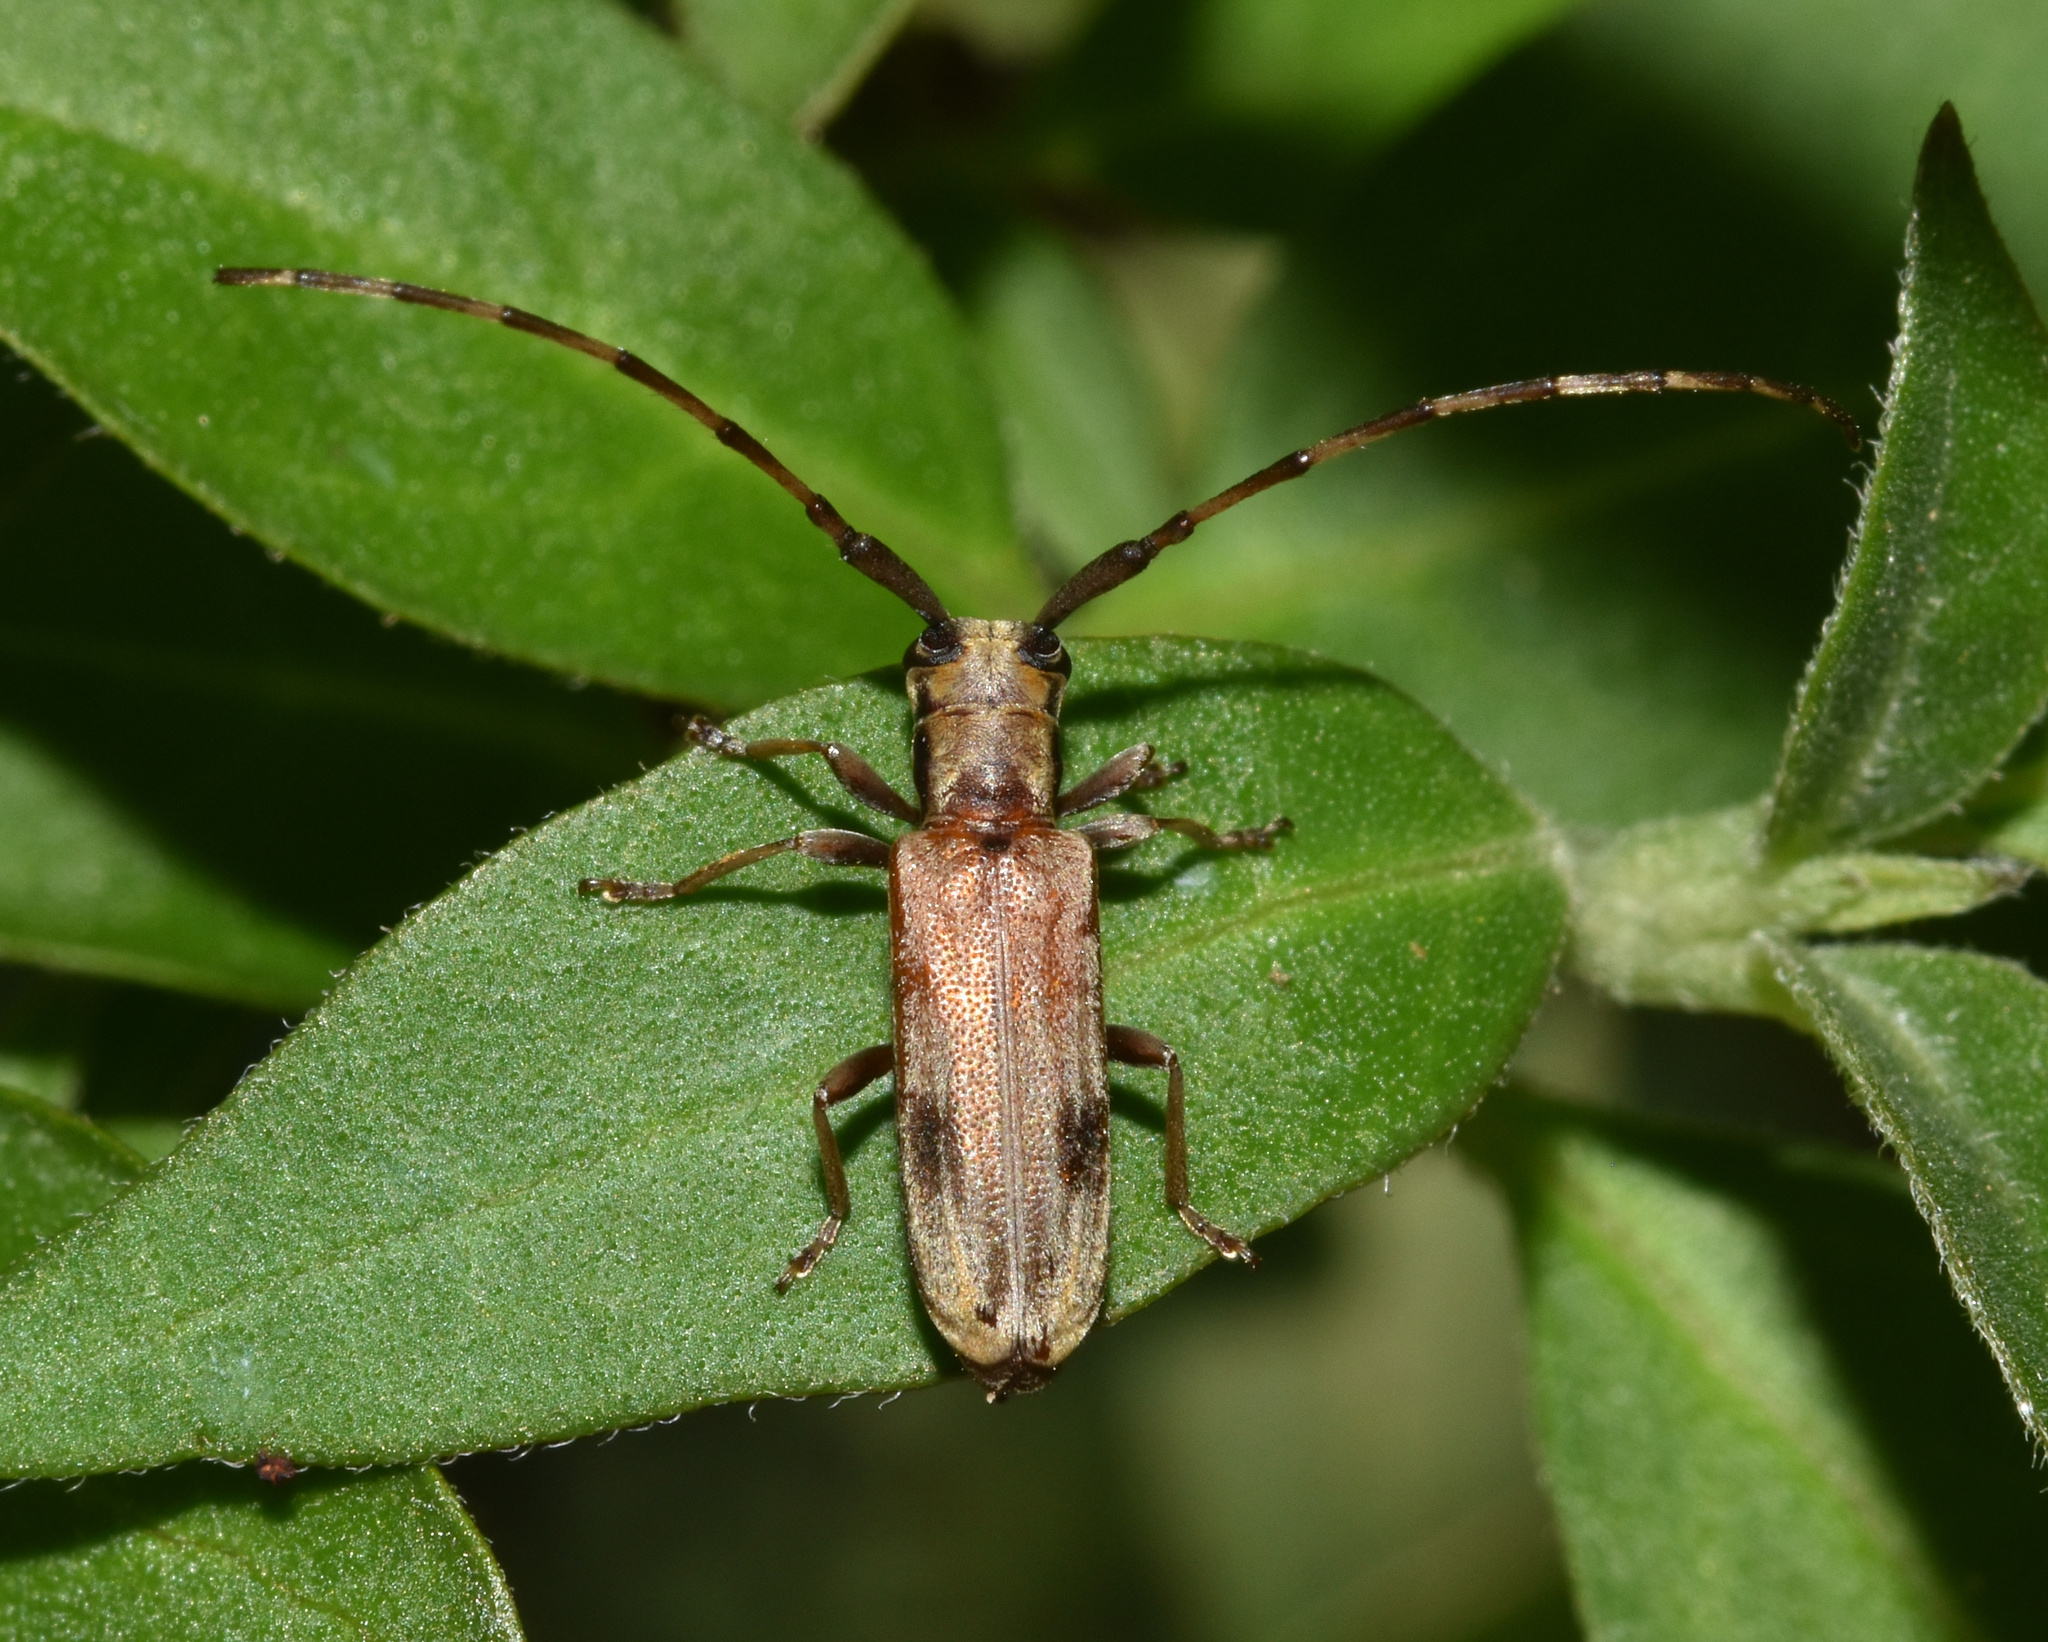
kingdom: Animalia
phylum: Arthropoda
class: Insecta
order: Coleoptera
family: Cerambycidae
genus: Eunidia
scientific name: Eunidia vestigialis
